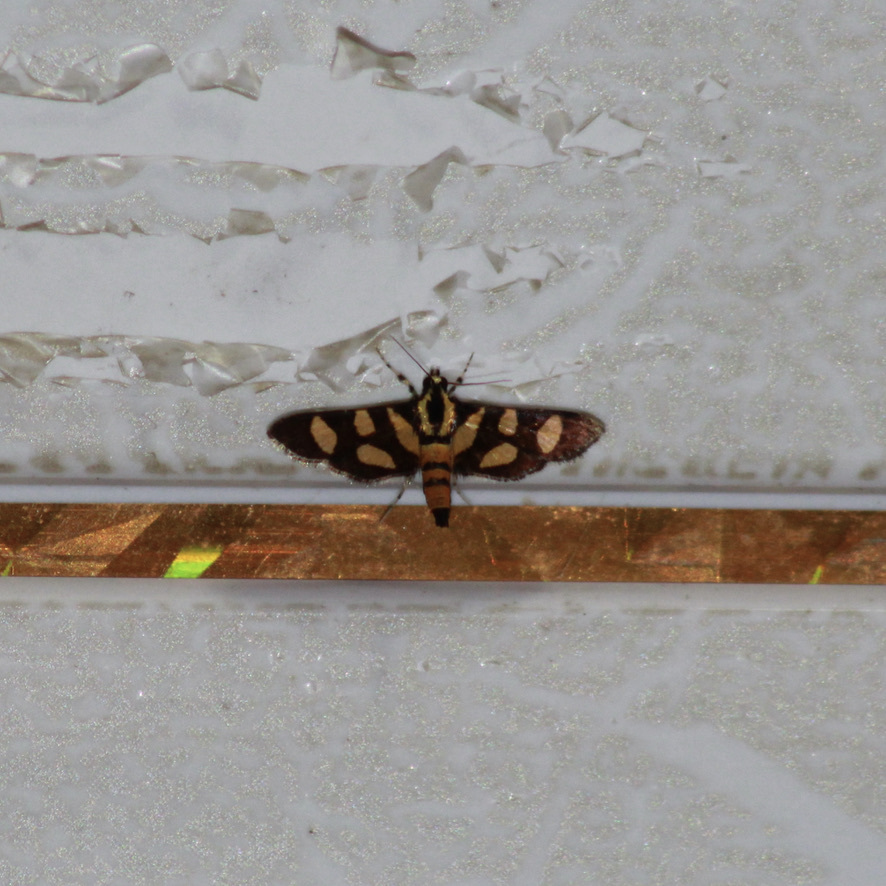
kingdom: Animalia
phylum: Arthropoda
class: Insecta
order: Lepidoptera
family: Crambidae
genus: Syngamia
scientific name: Syngamia florella
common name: Orange-spotted flower moth
